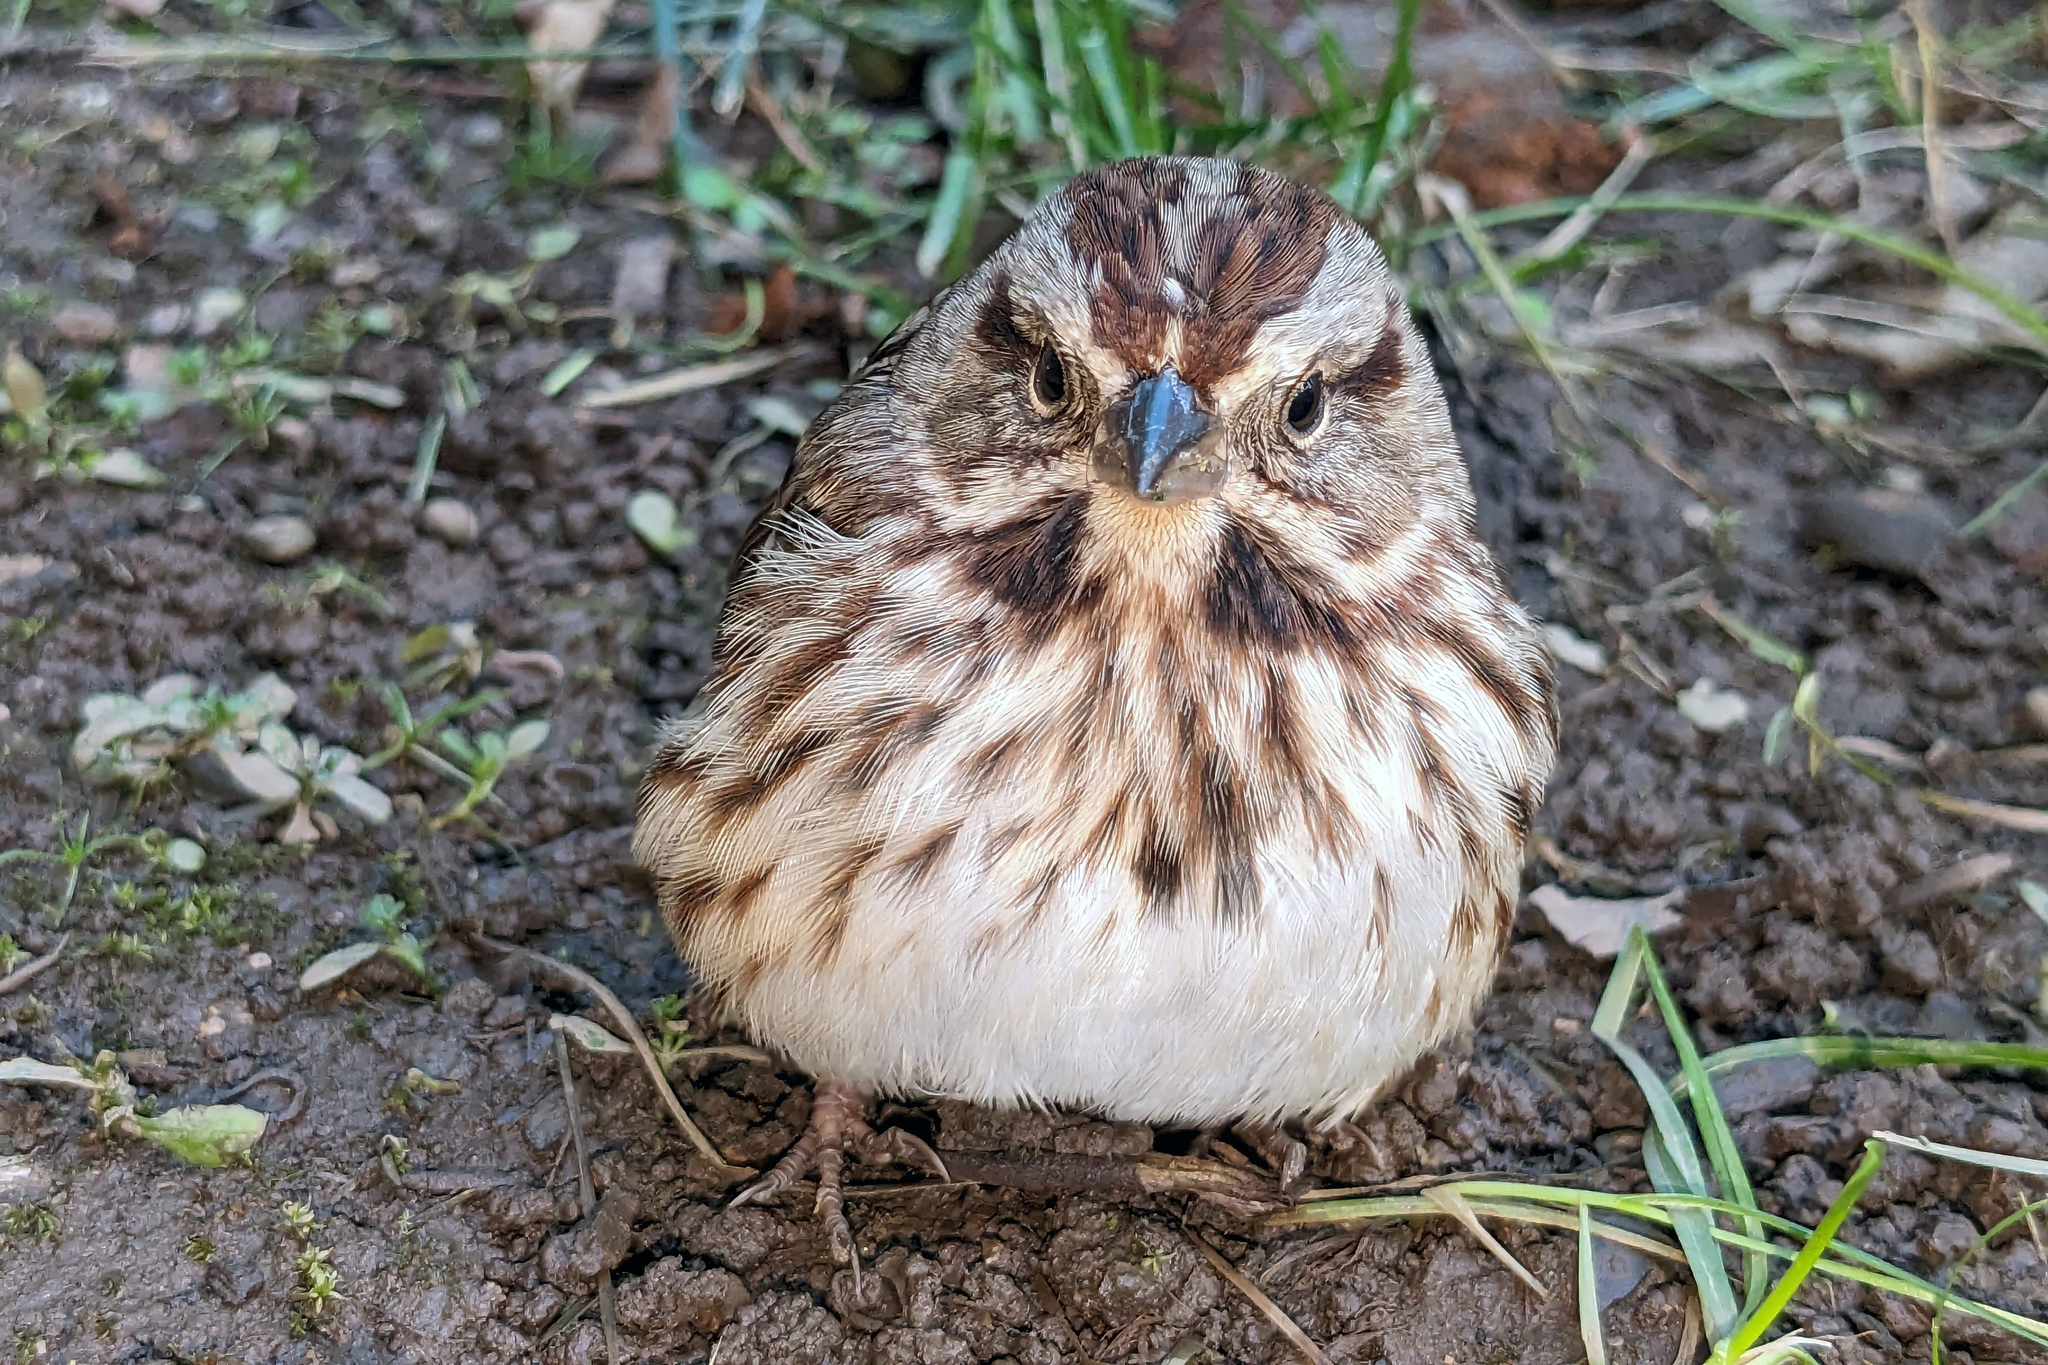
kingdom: Animalia
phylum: Chordata
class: Aves
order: Passeriformes
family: Passerellidae
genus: Melospiza
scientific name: Melospiza melodia
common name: Song sparrow
